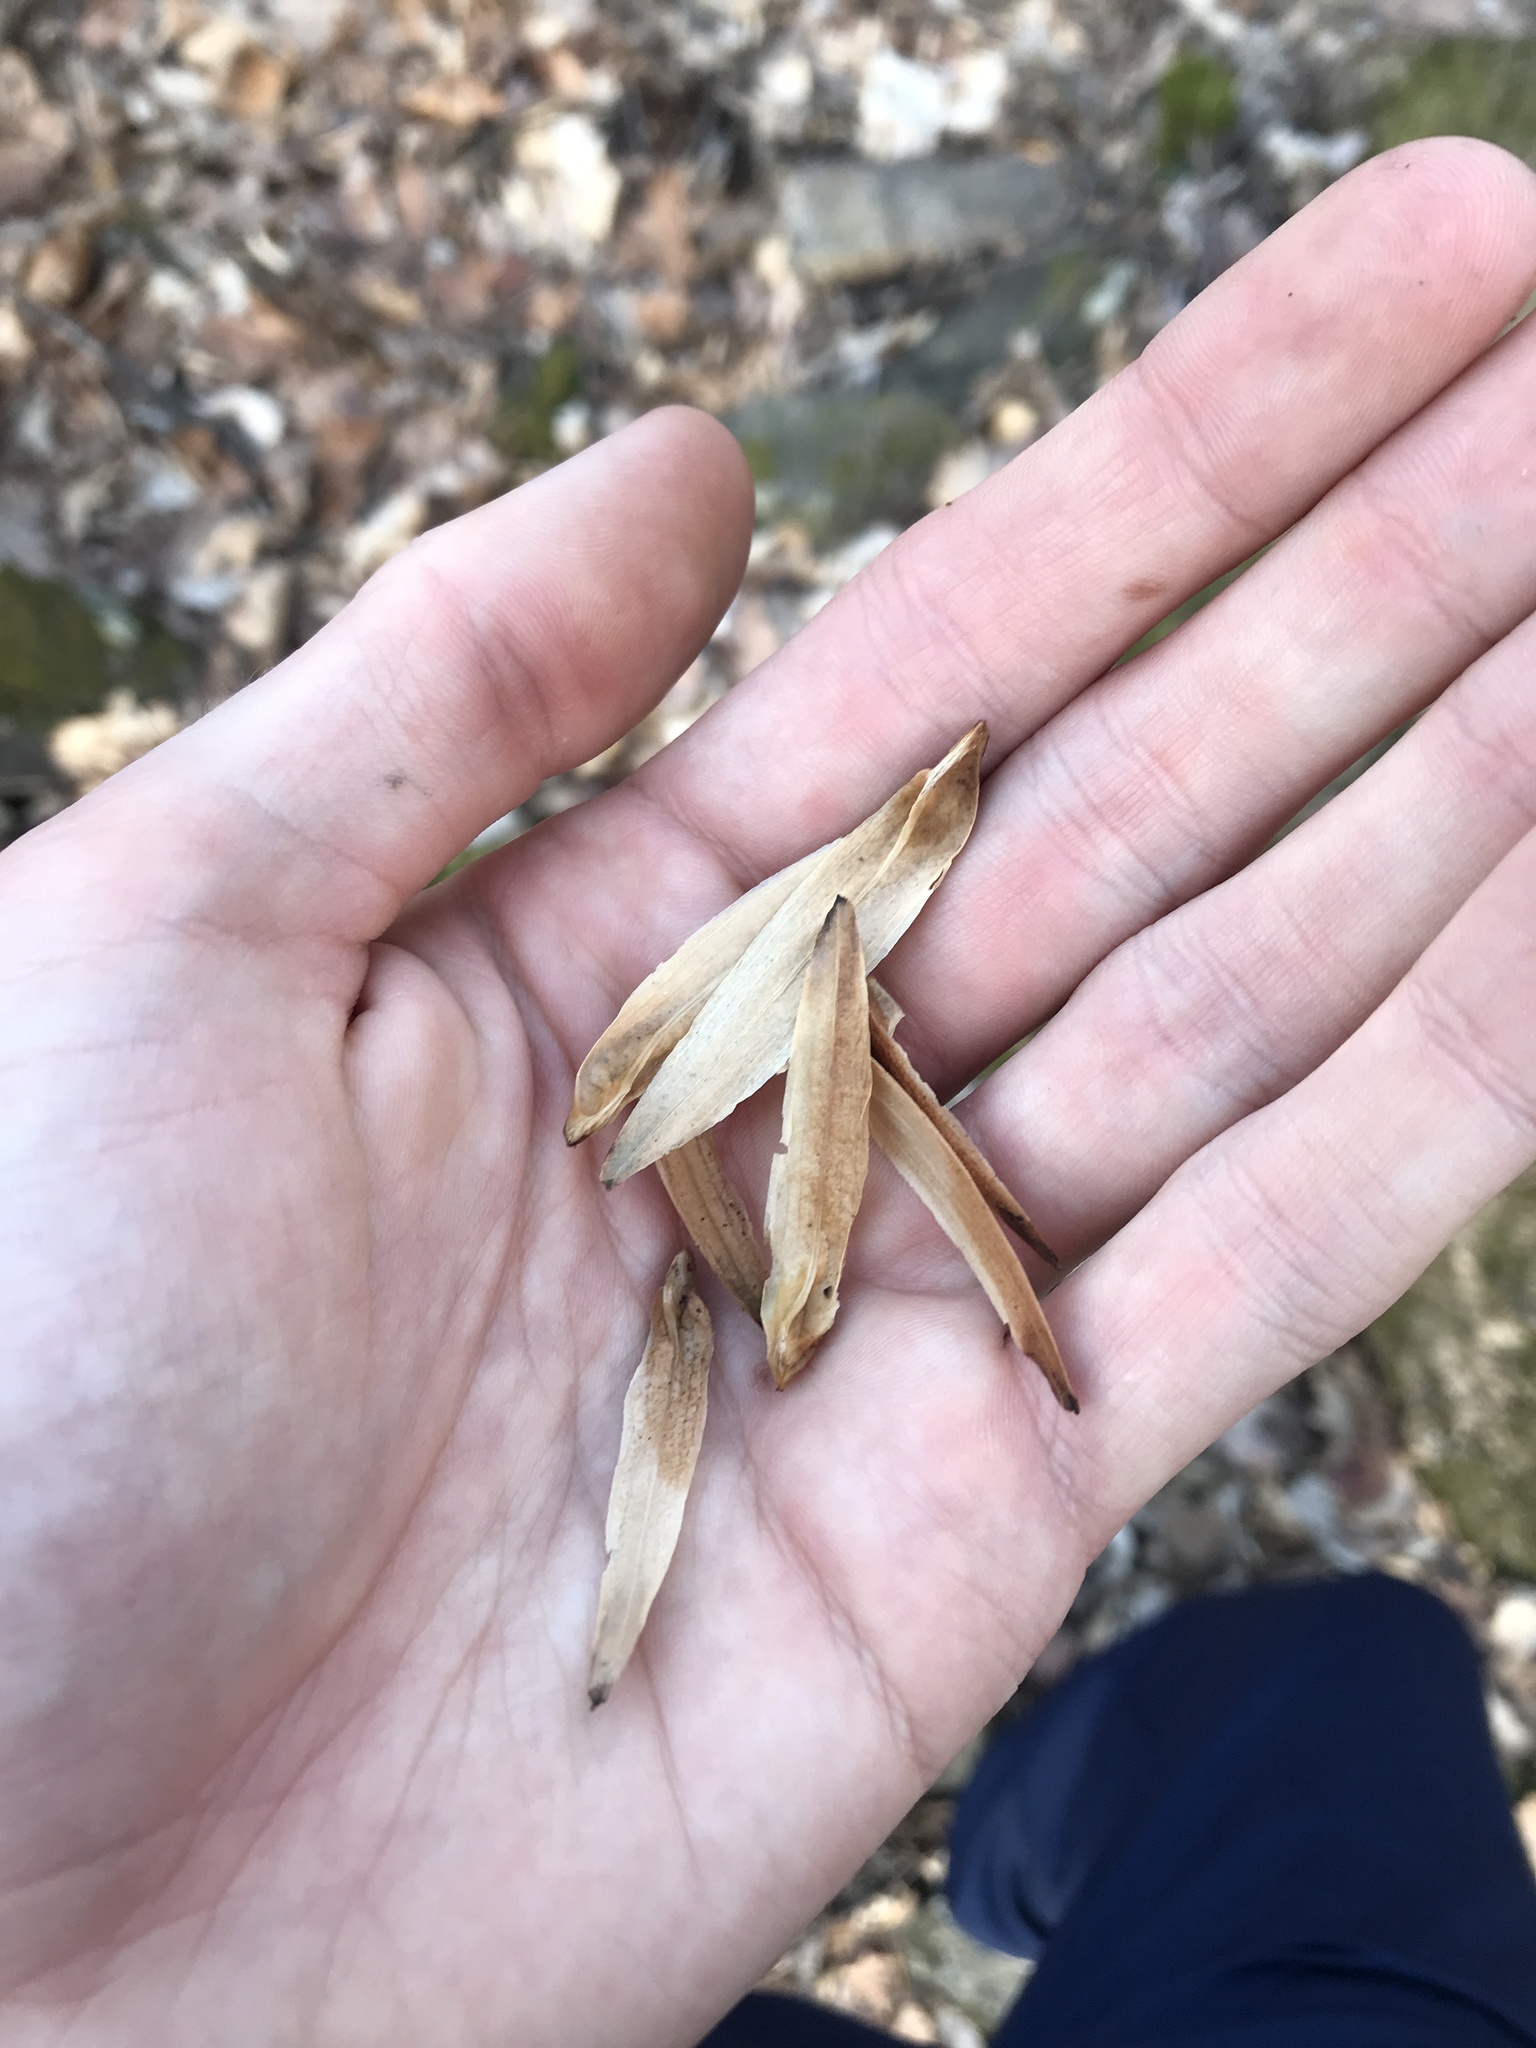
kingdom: Plantae
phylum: Tracheophyta
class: Magnoliopsida
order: Magnoliales
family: Magnoliaceae
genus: Liriodendron
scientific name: Liriodendron tulipifera
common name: Tulip tree
